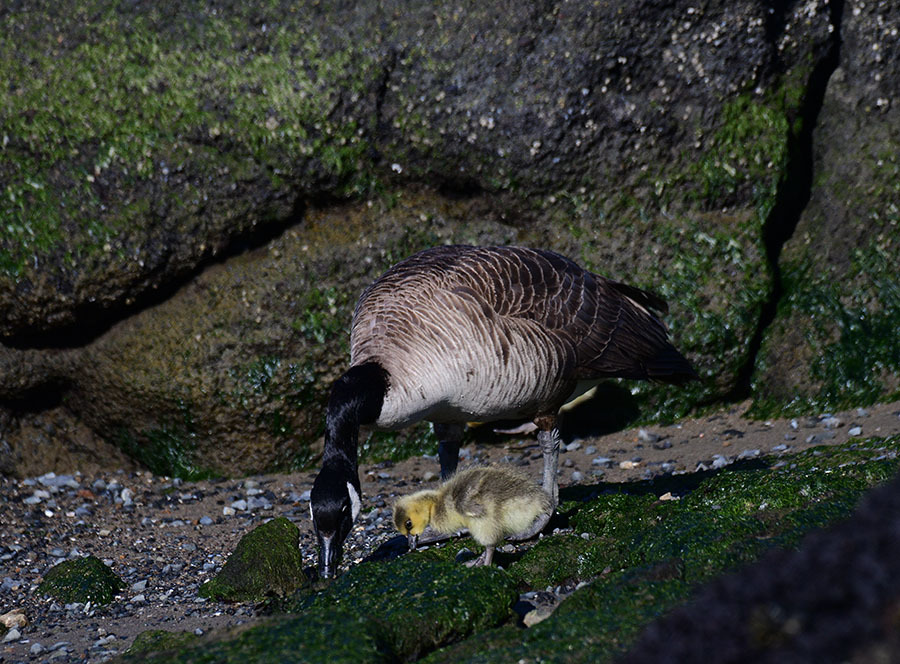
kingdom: Animalia
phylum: Chordata
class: Aves
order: Anseriformes
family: Anatidae
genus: Branta
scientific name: Branta canadensis
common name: Canada goose
